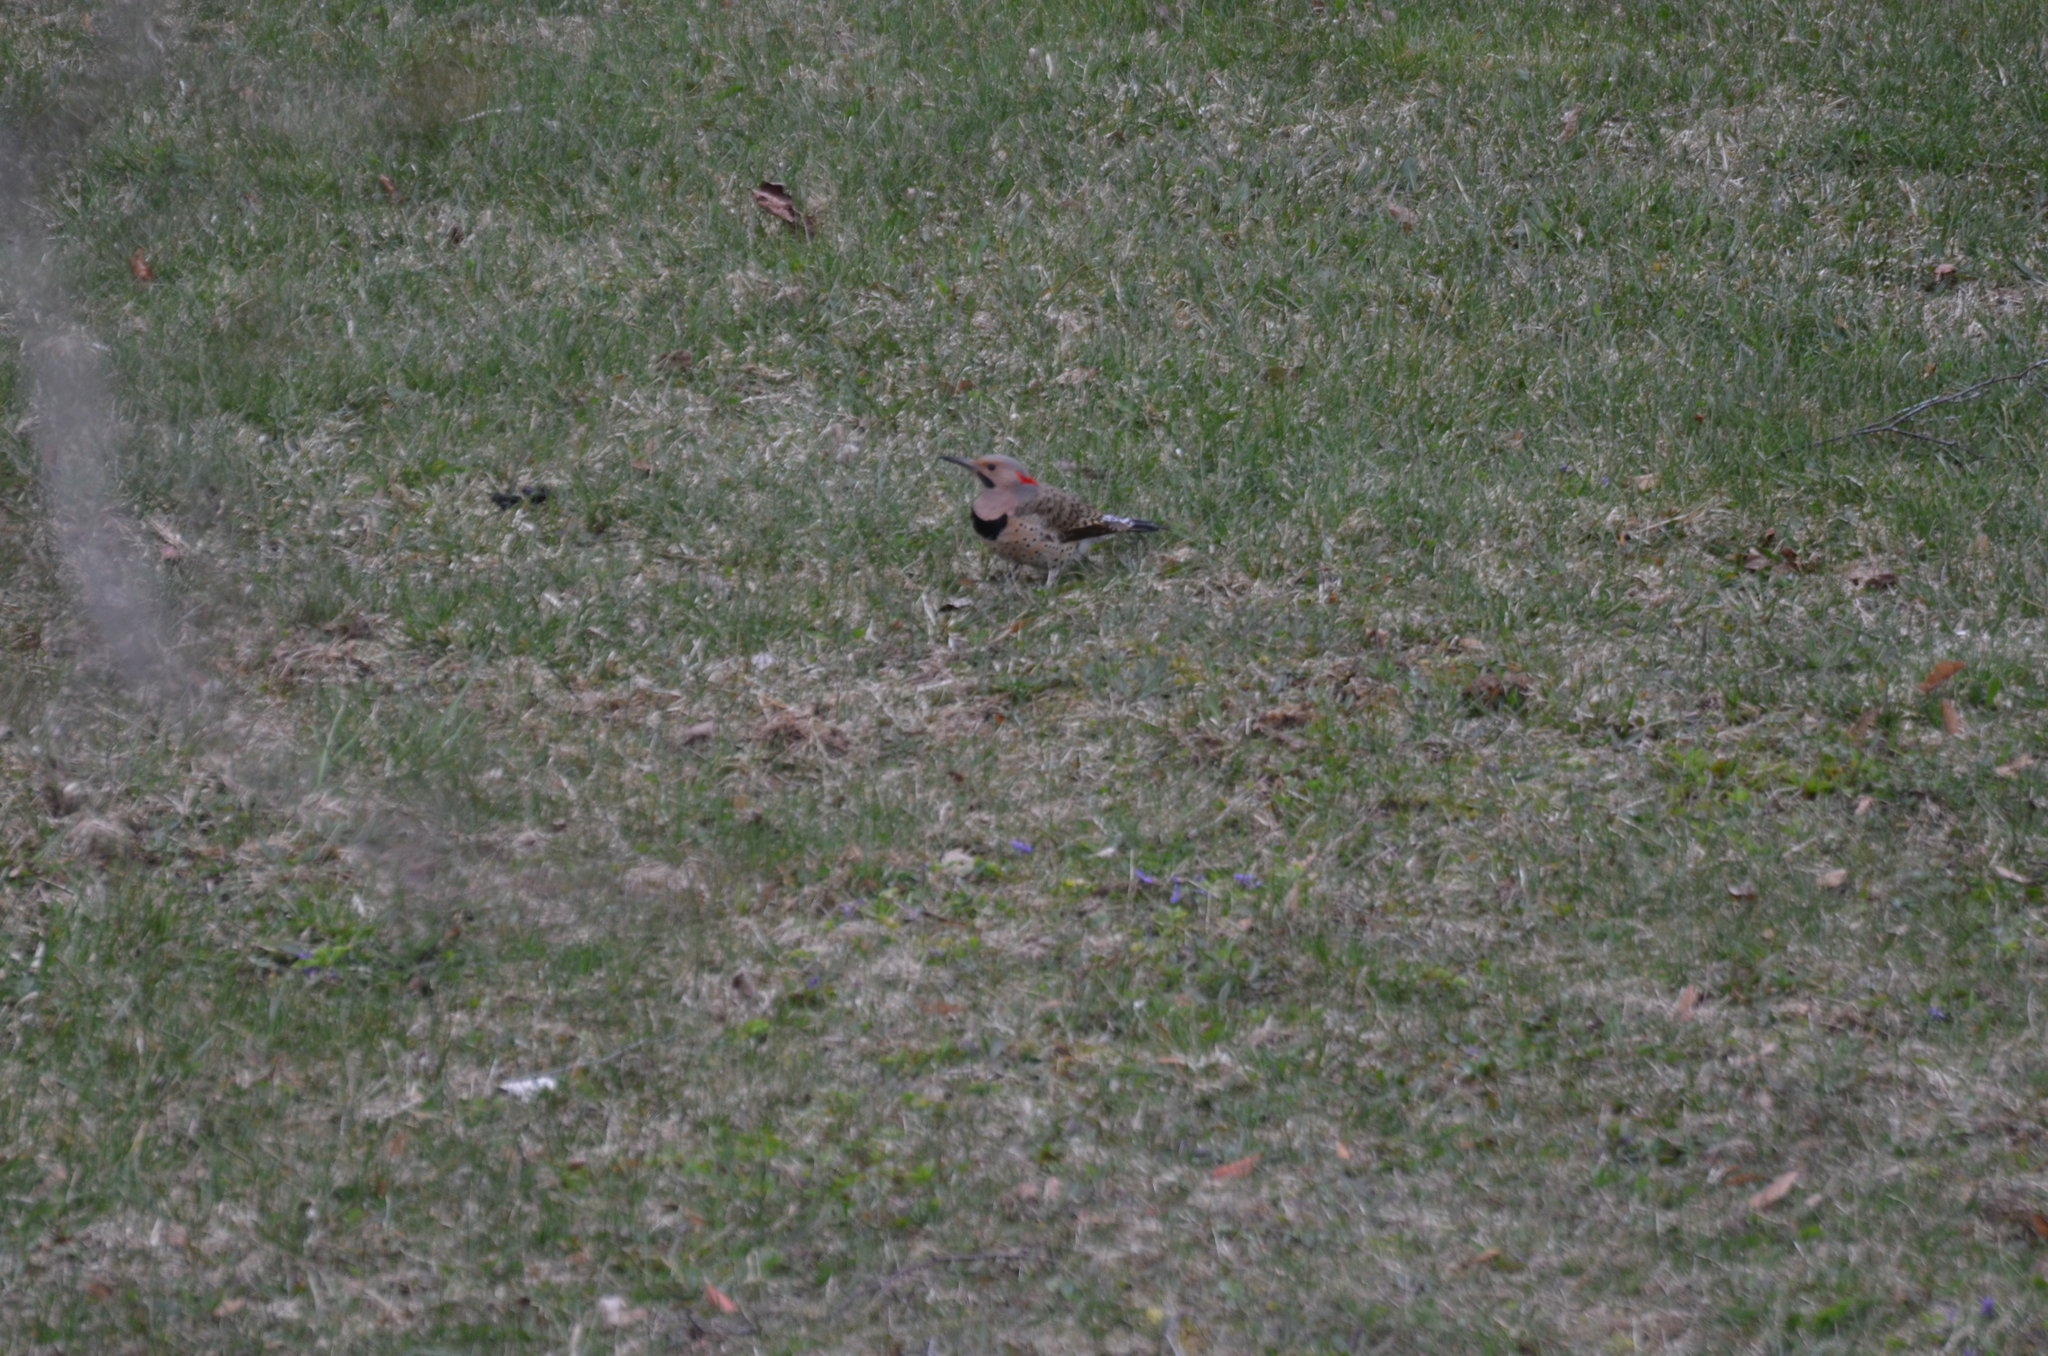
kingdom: Animalia
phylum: Chordata
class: Aves
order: Piciformes
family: Picidae
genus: Colaptes
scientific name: Colaptes auratus
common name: Northern flicker
